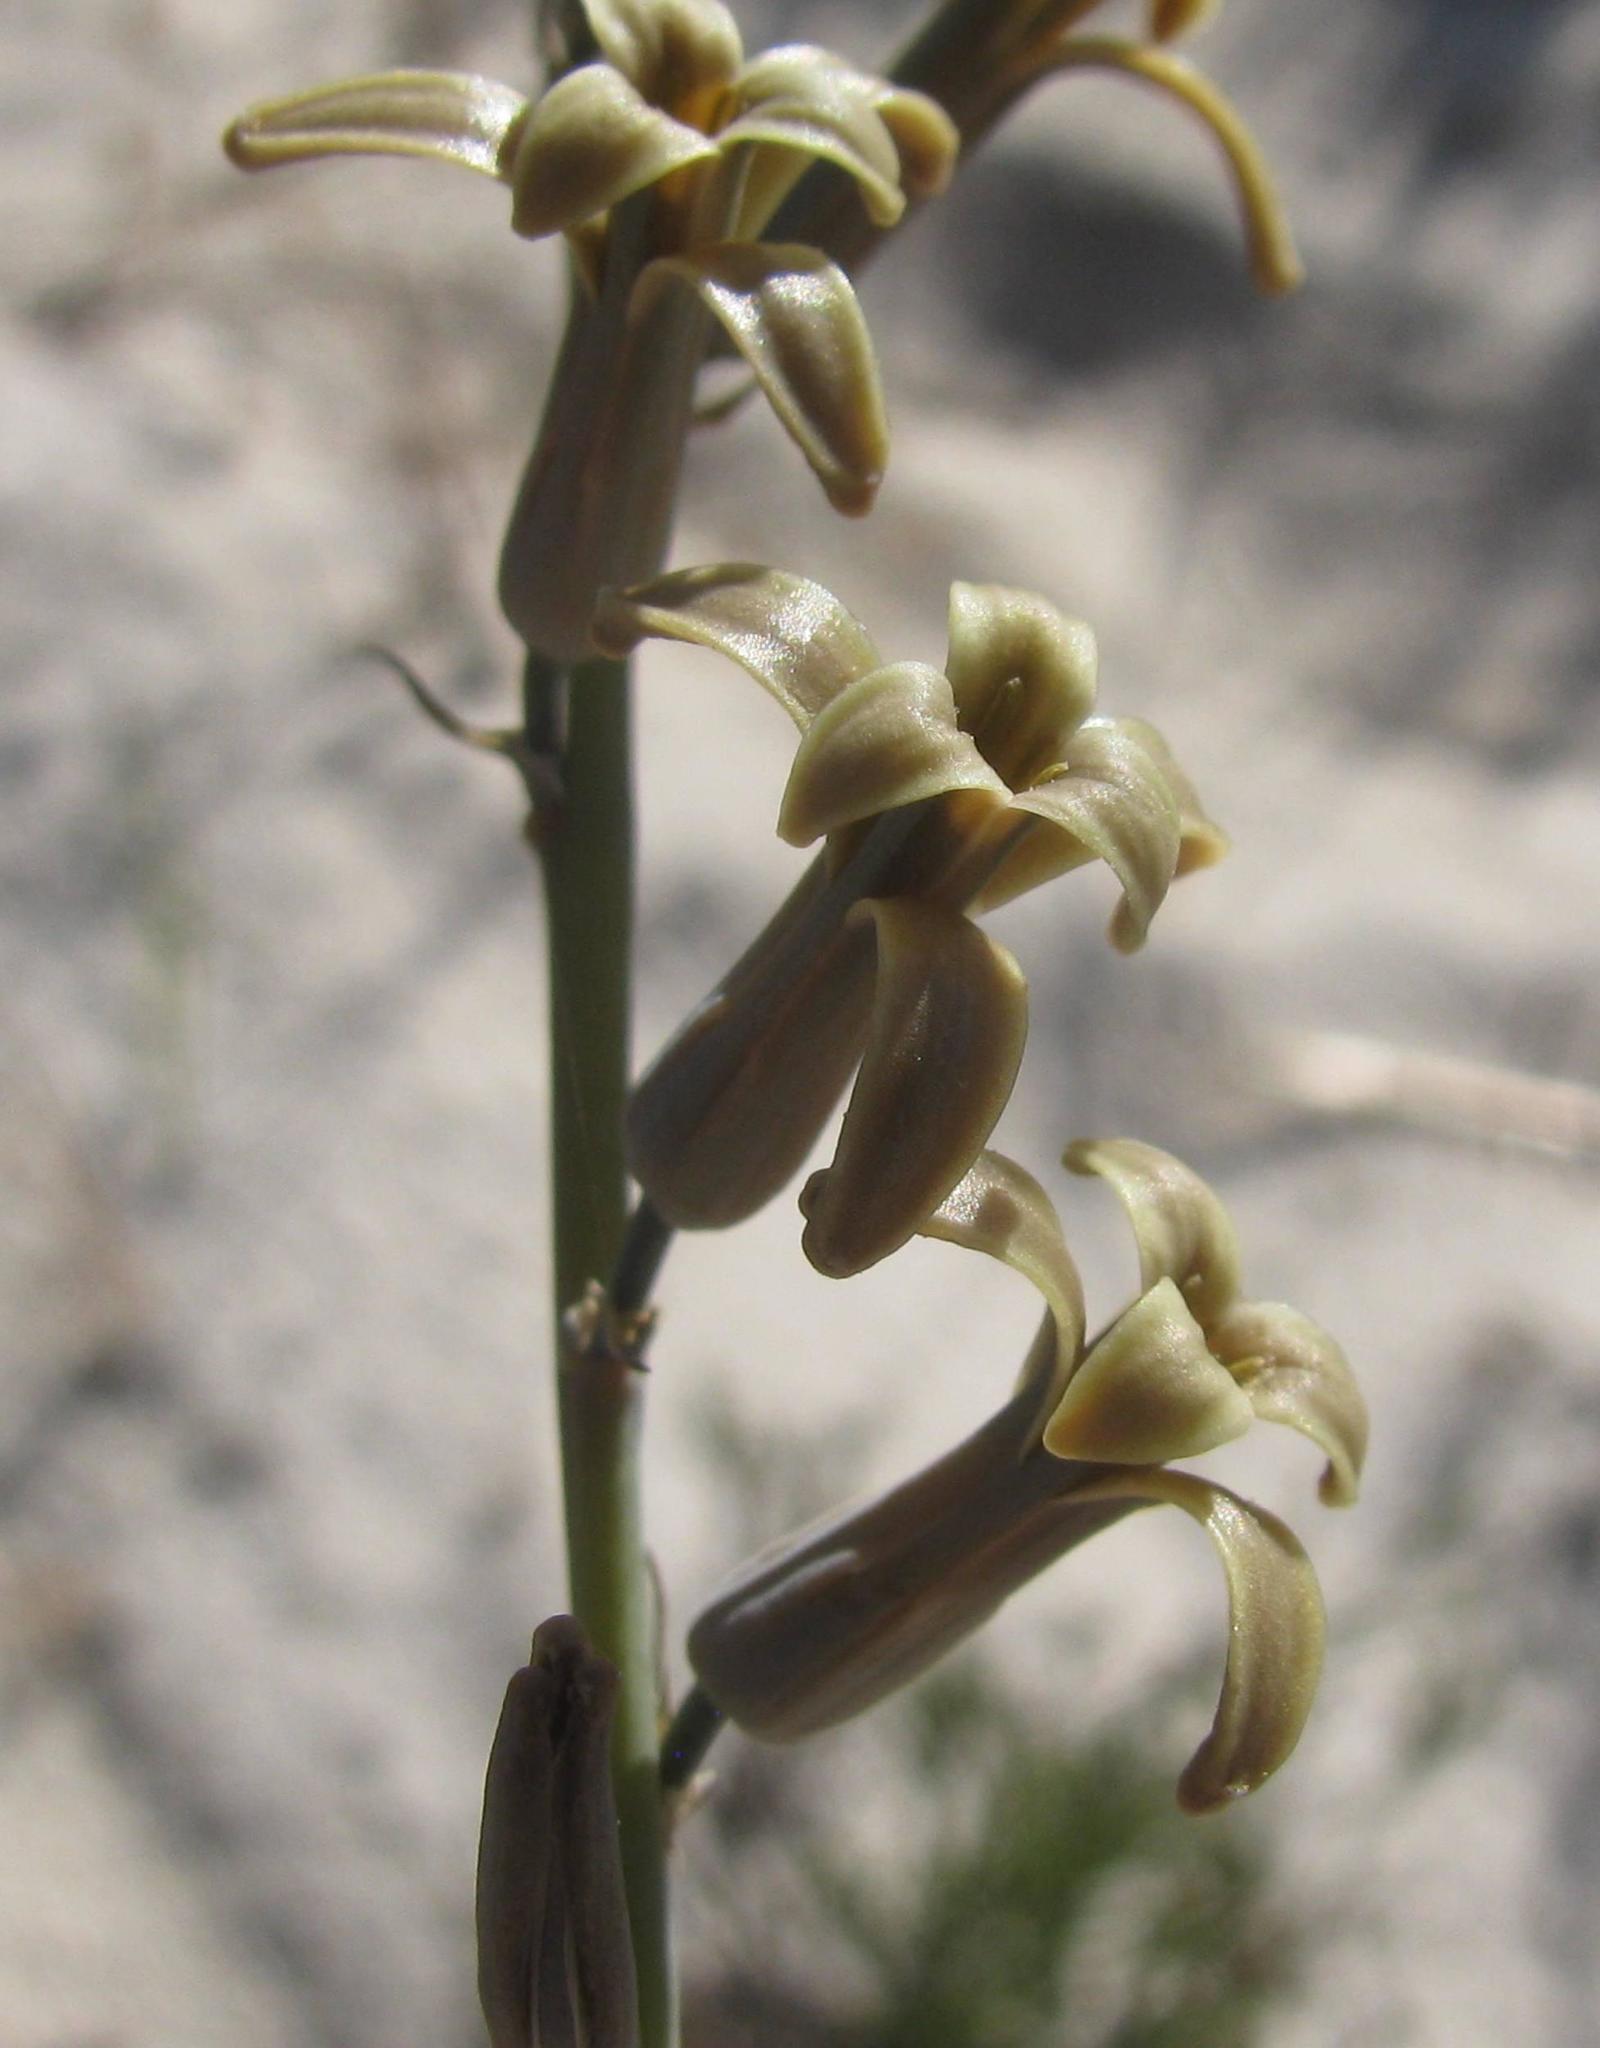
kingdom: Plantae
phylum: Tracheophyta
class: Liliopsida
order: Asparagales
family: Asparagaceae
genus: Dipcadi
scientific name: Dipcadi brevifolium
